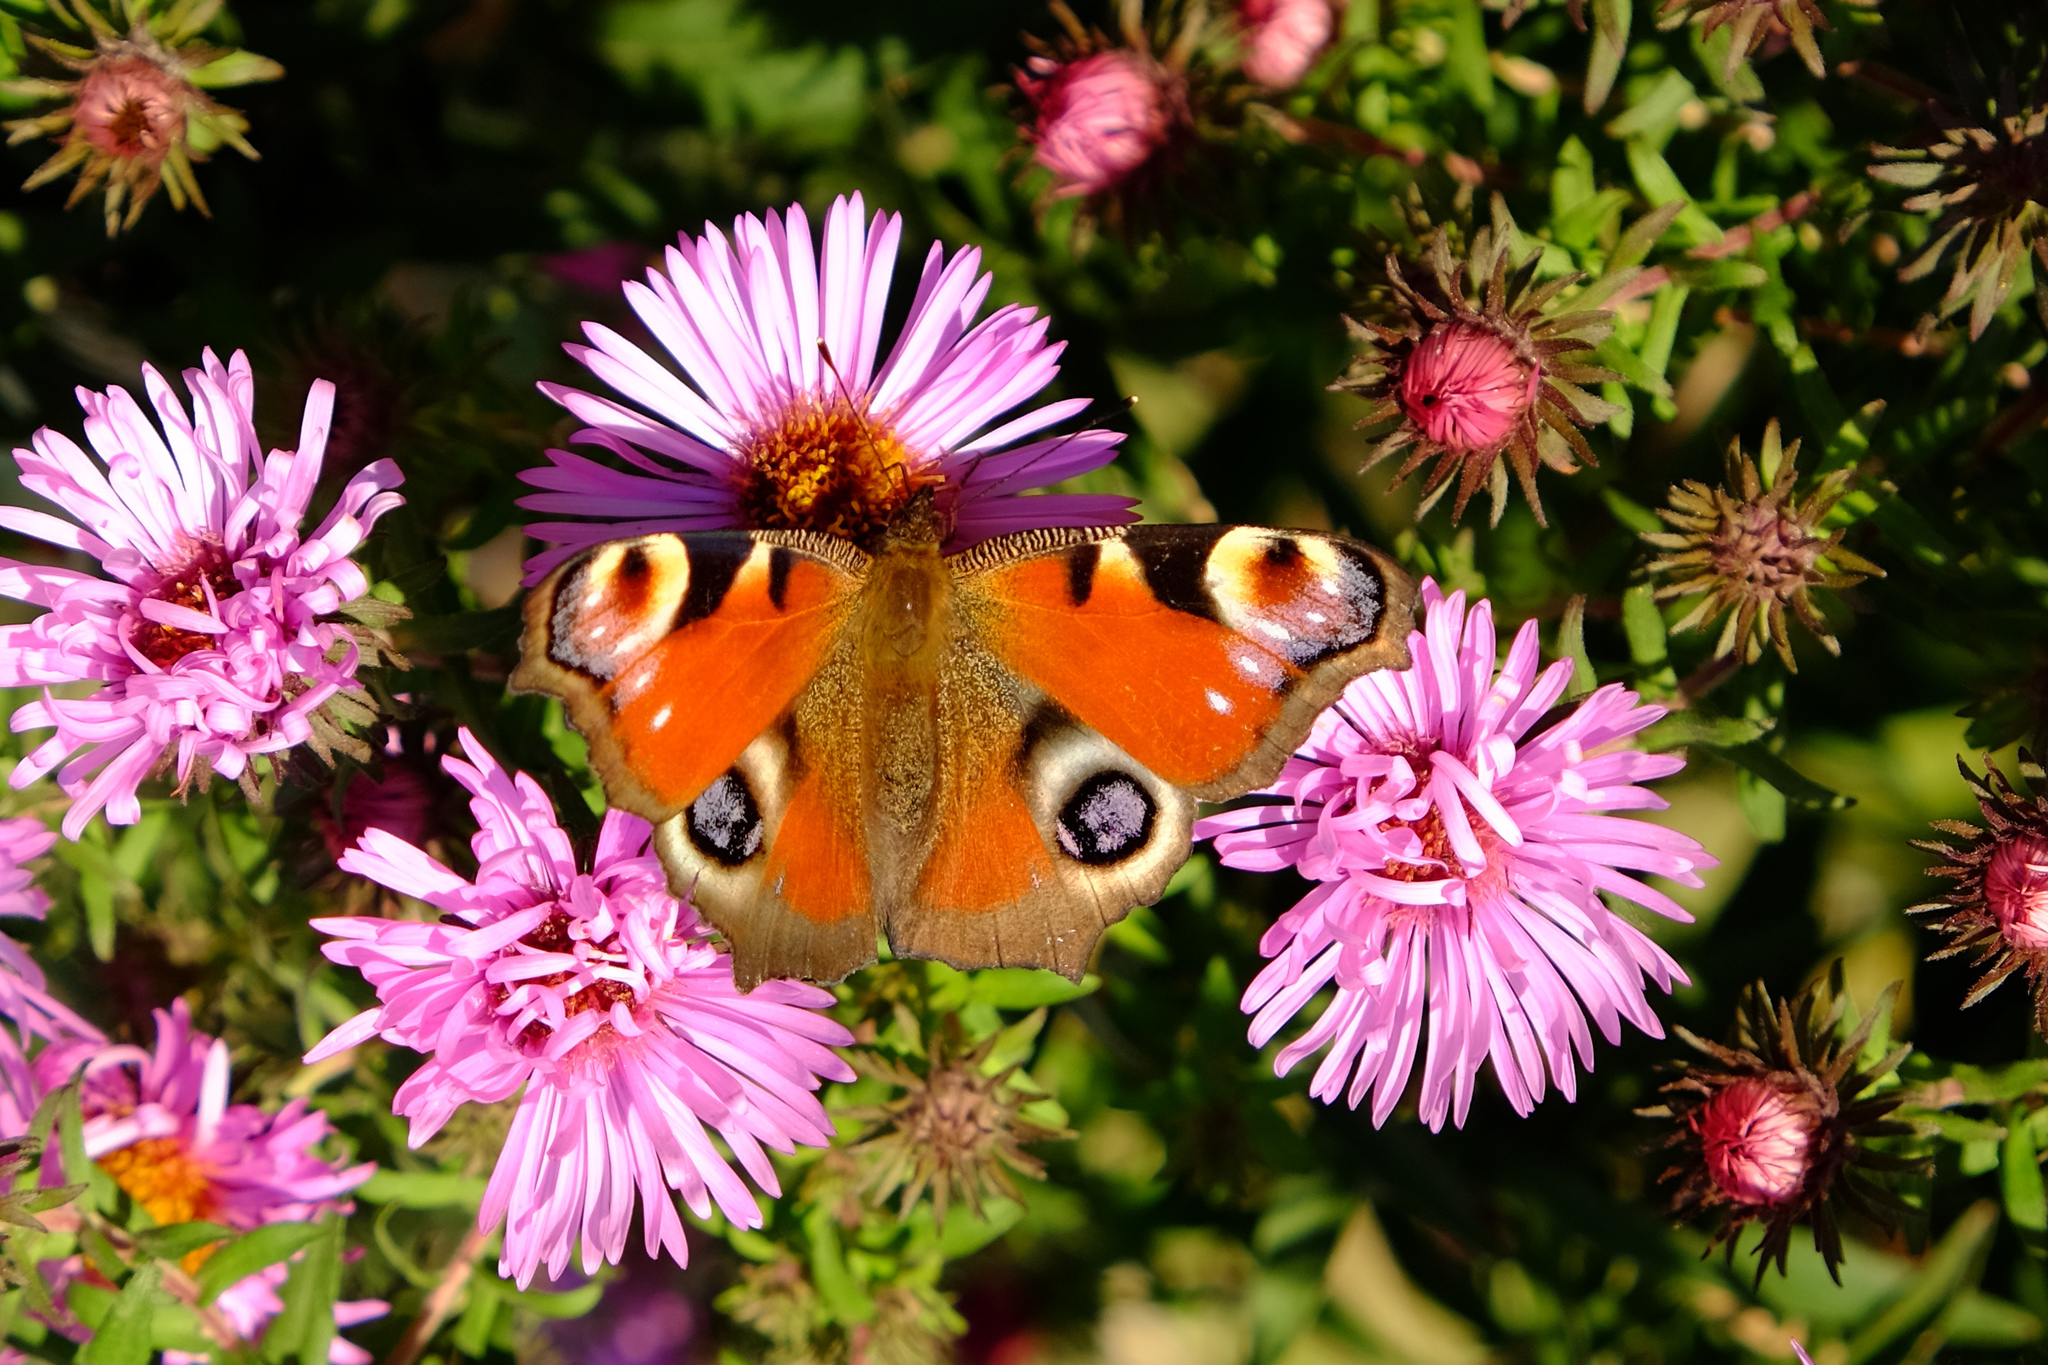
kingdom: Animalia
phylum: Arthropoda
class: Insecta
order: Lepidoptera
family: Nymphalidae
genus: Aglais
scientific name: Aglais io
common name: Peacock
